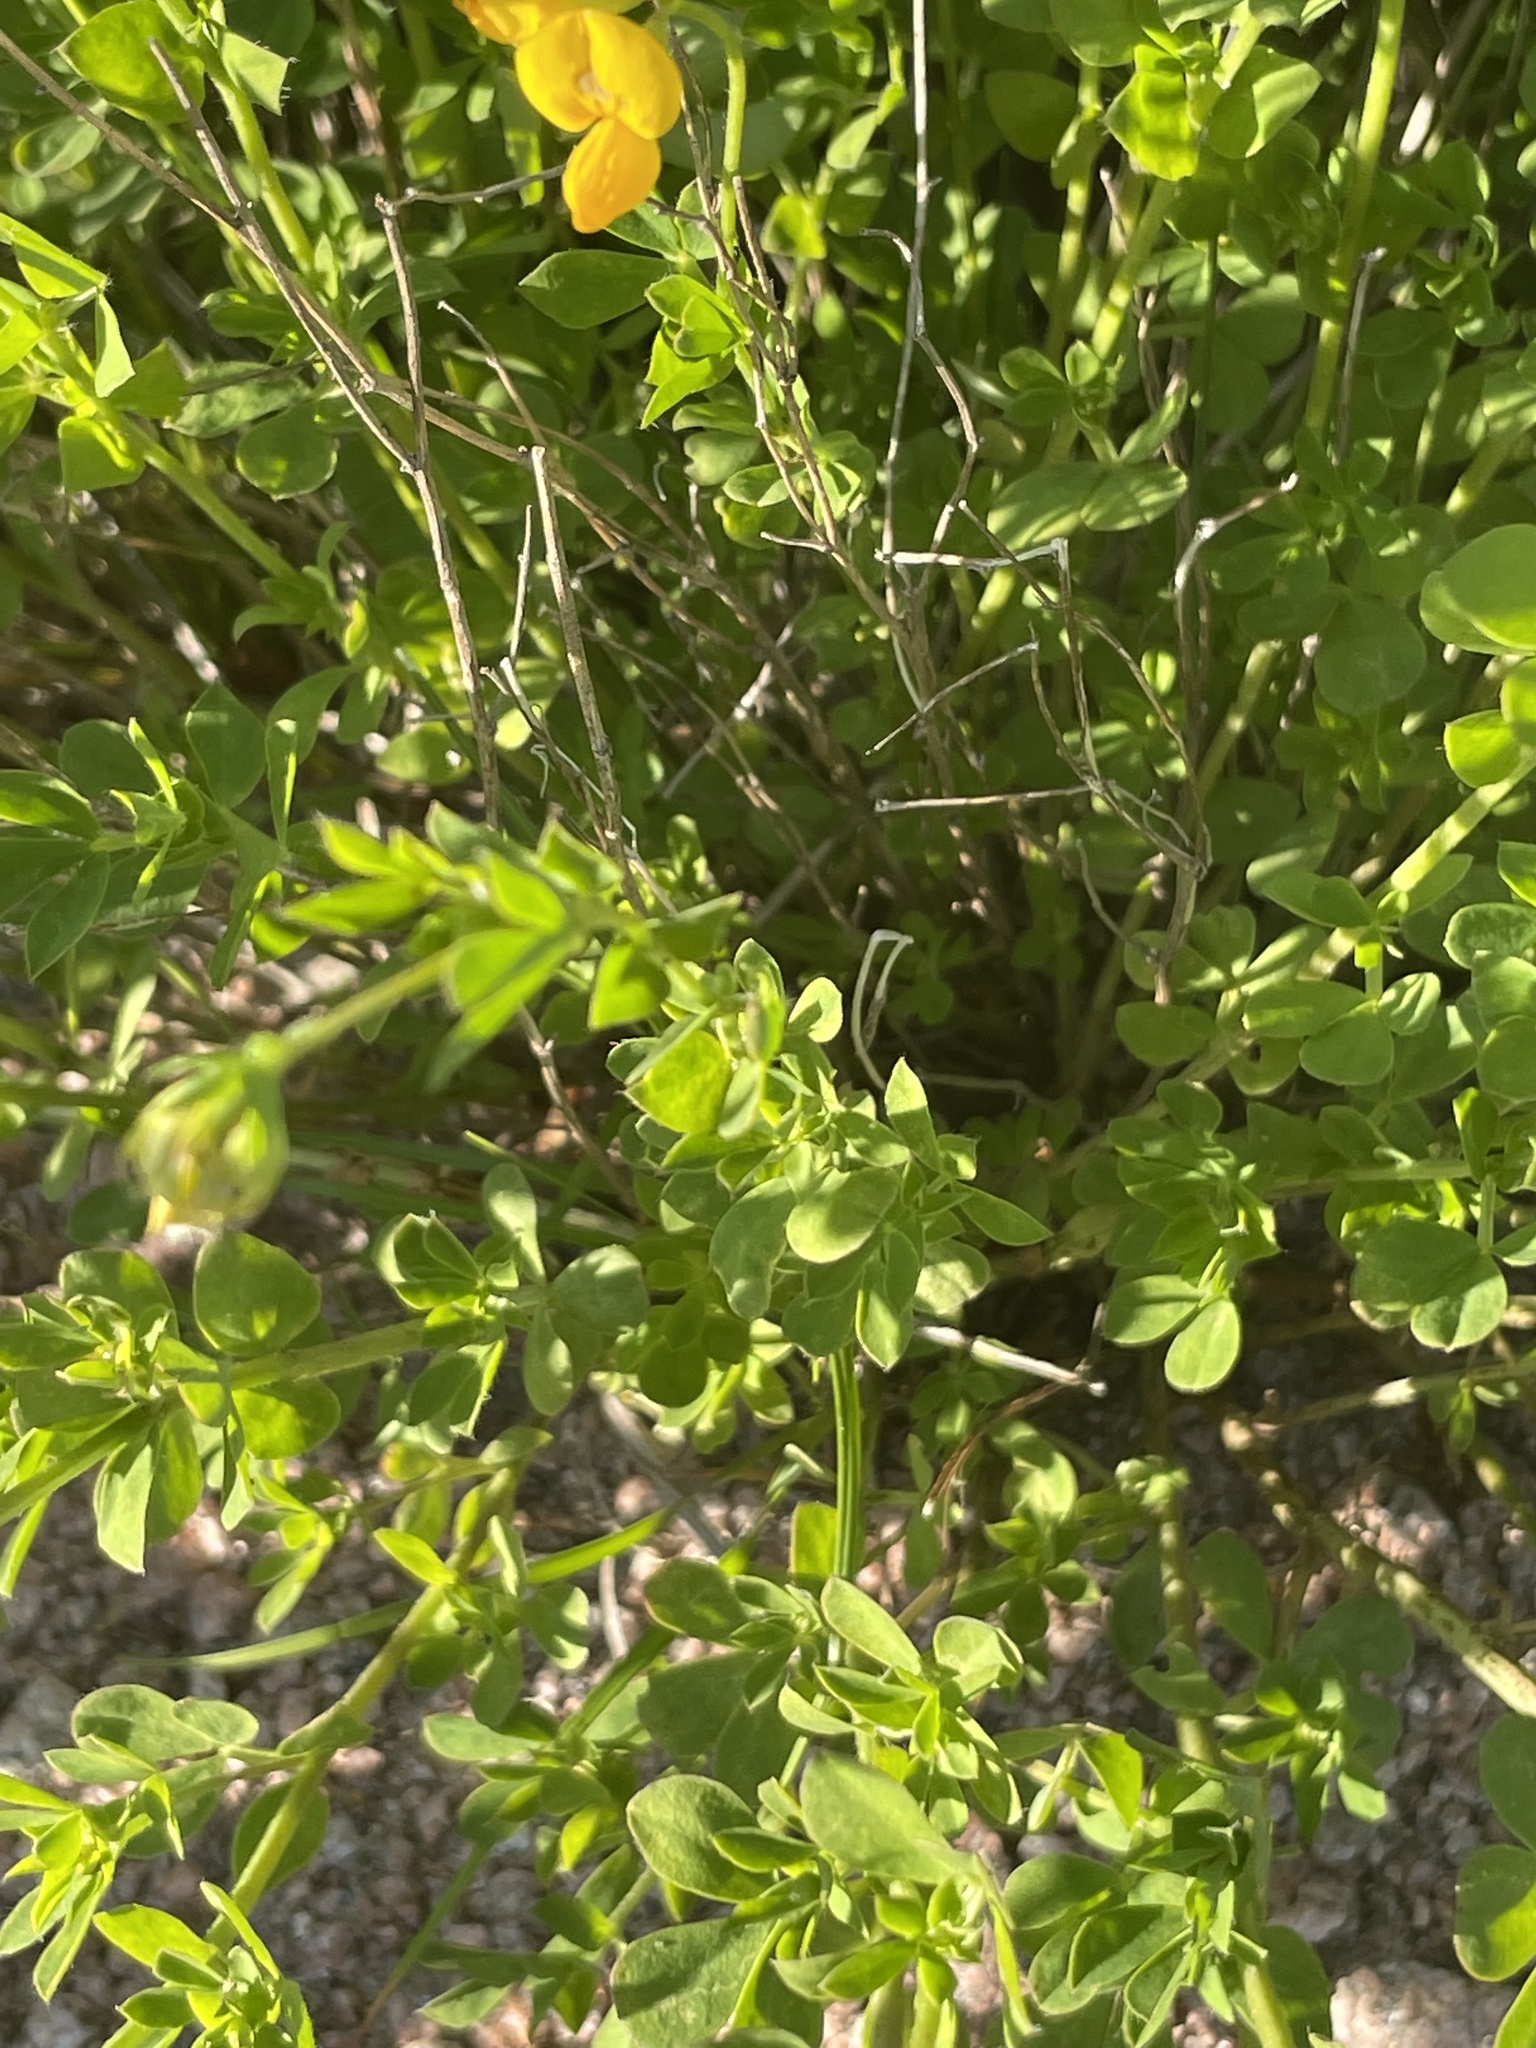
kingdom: Plantae
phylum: Tracheophyta
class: Magnoliopsida
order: Fabales
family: Fabaceae
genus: Lotus
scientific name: Lotus corniculatus
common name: Common bird's-foot-trefoil
